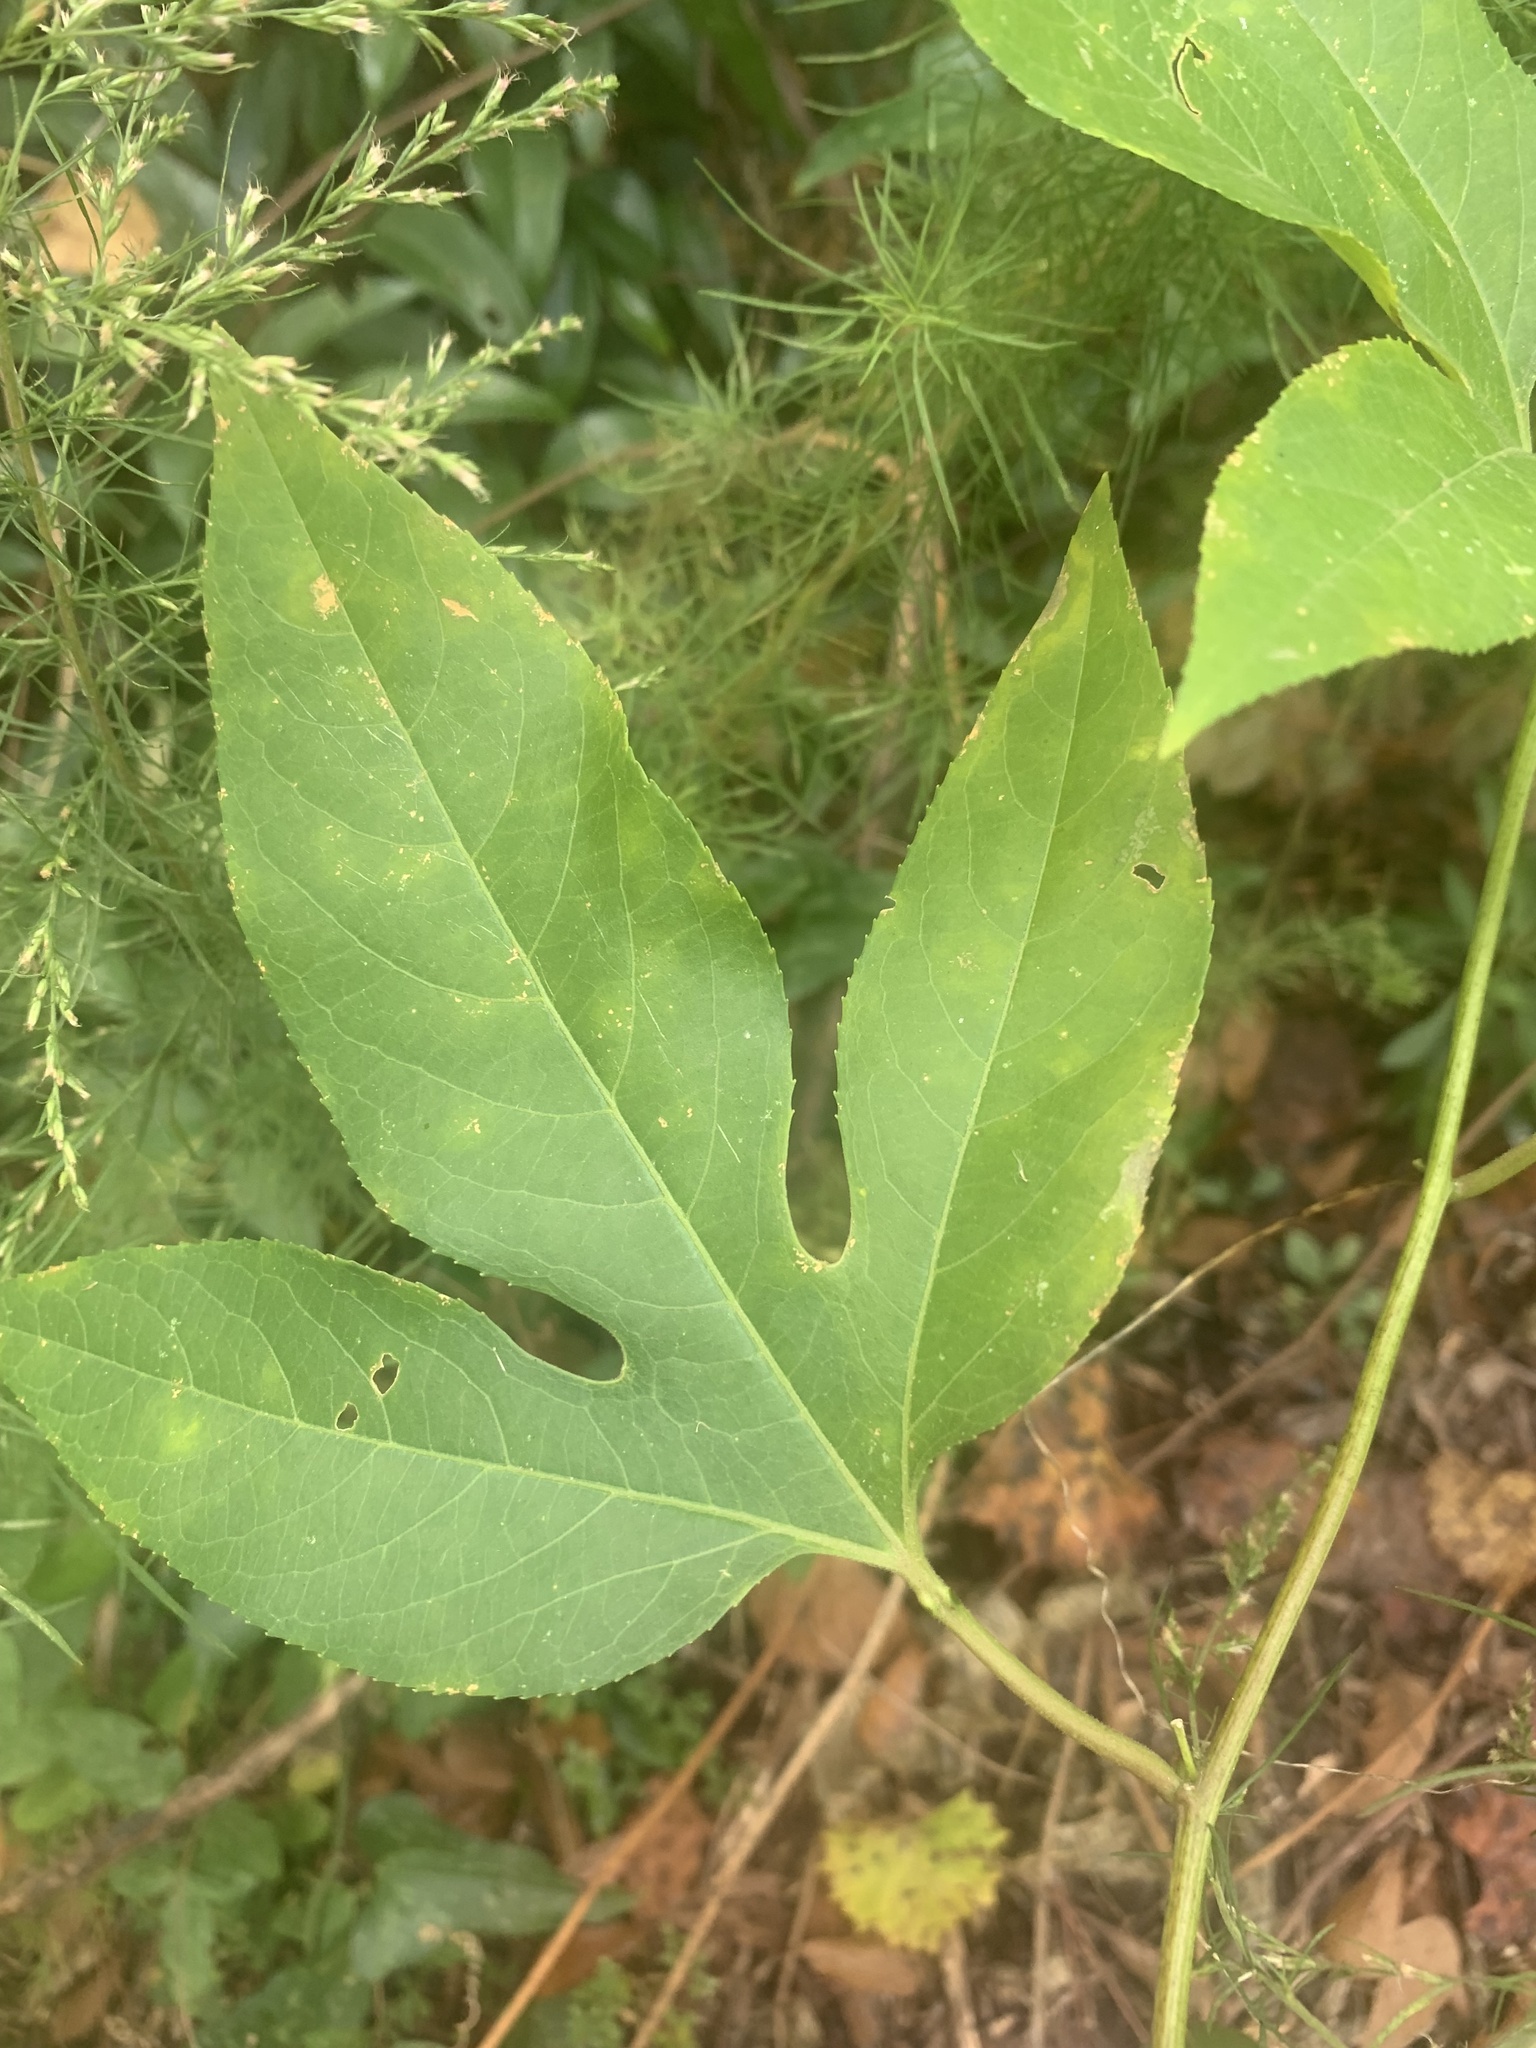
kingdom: Plantae
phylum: Tracheophyta
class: Magnoliopsida
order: Malpighiales
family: Passifloraceae
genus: Passiflora
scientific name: Passiflora incarnata
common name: Apricot-vine
